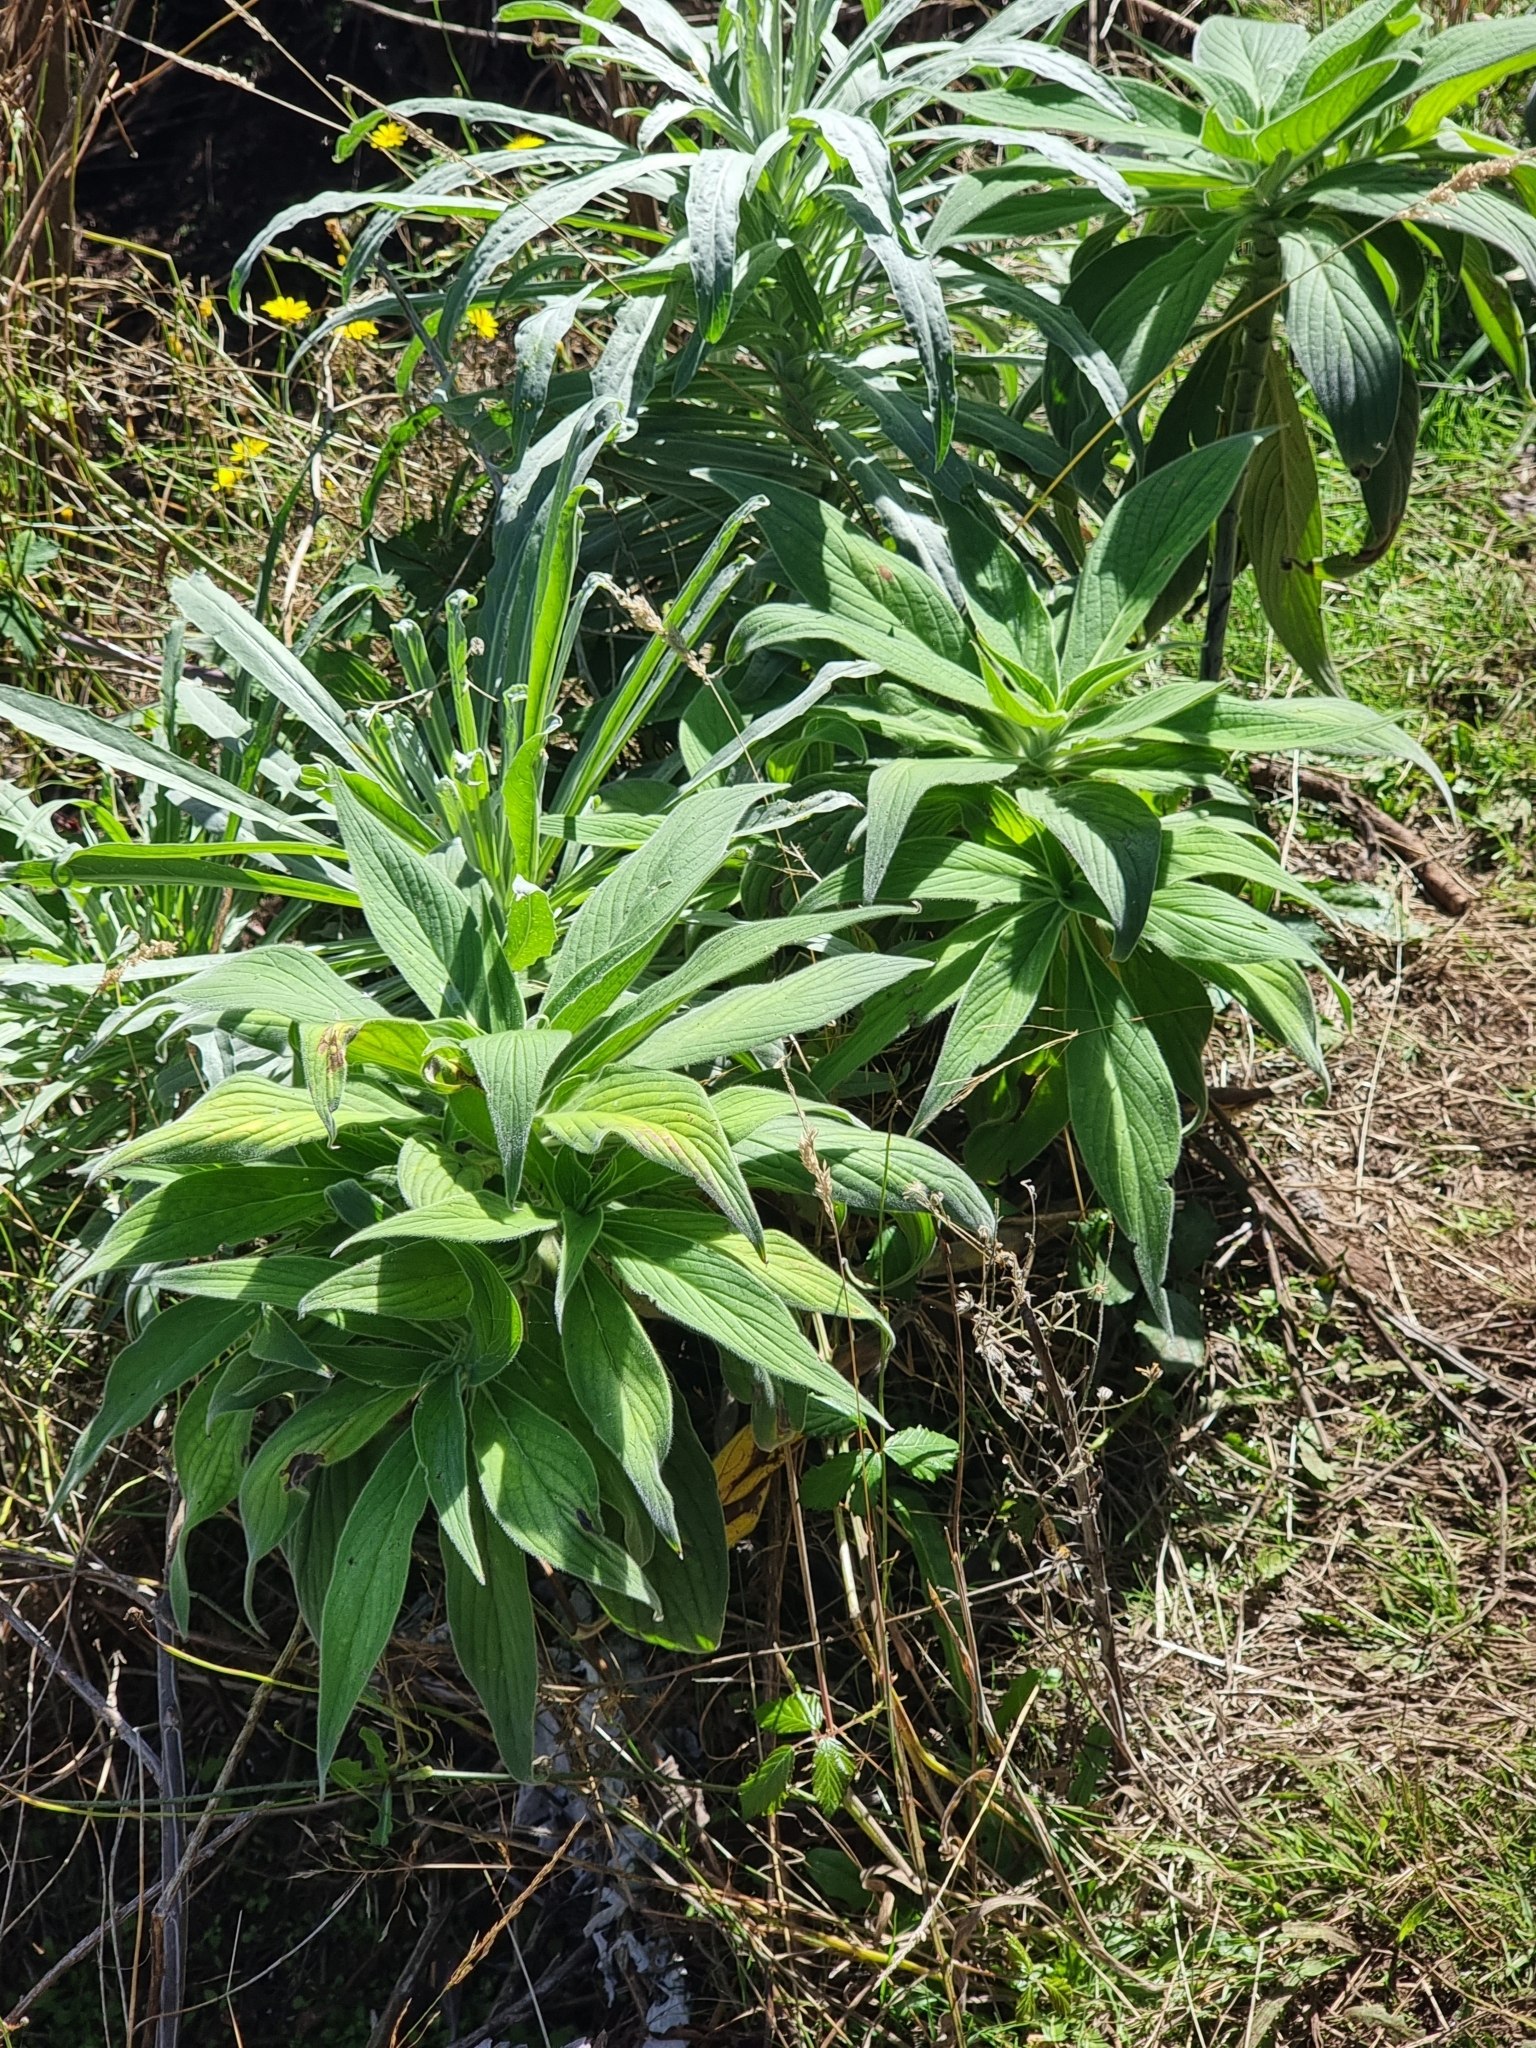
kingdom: Plantae
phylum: Tracheophyta
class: Magnoliopsida
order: Boraginales
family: Boraginaceae
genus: Echium
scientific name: Echium candicans
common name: Pride of madeira
